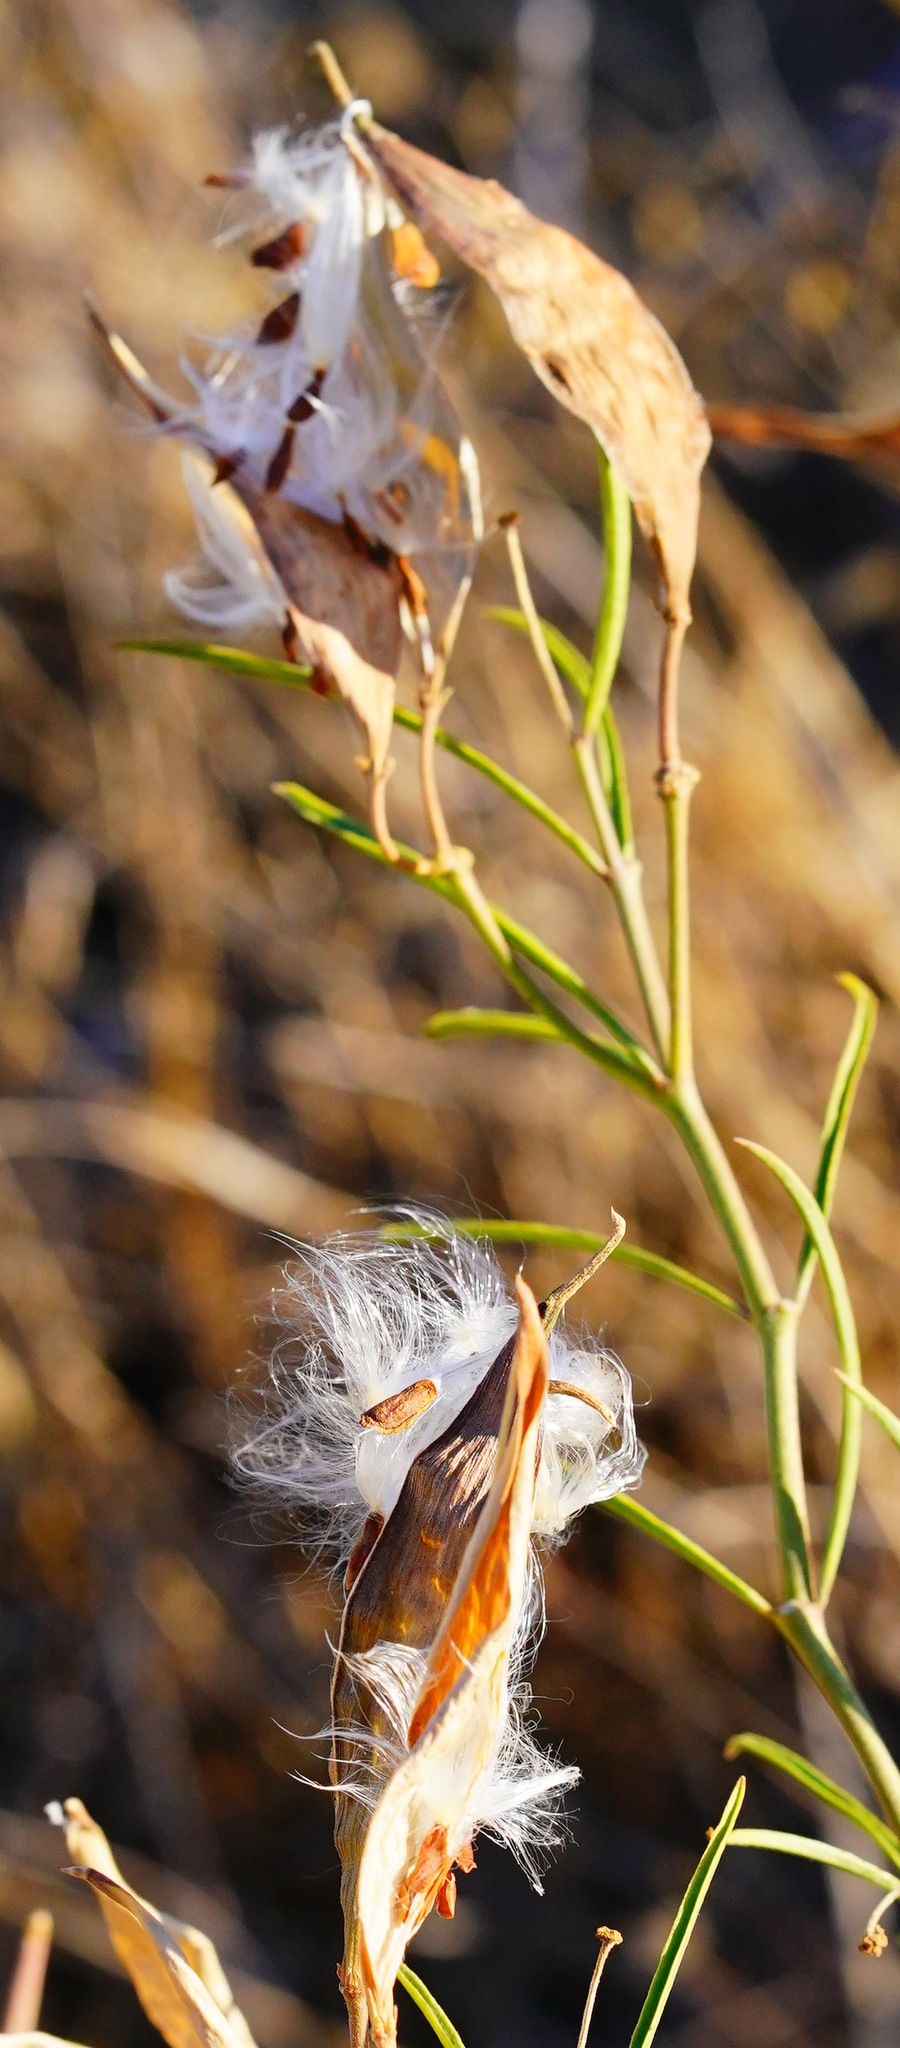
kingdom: Plantae
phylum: Tracheophyta
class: Magnoliopsida
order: Gentianales
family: Apocynaceae
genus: Asclepias
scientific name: Asclepias fascicularis
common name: Mexican milkweed
